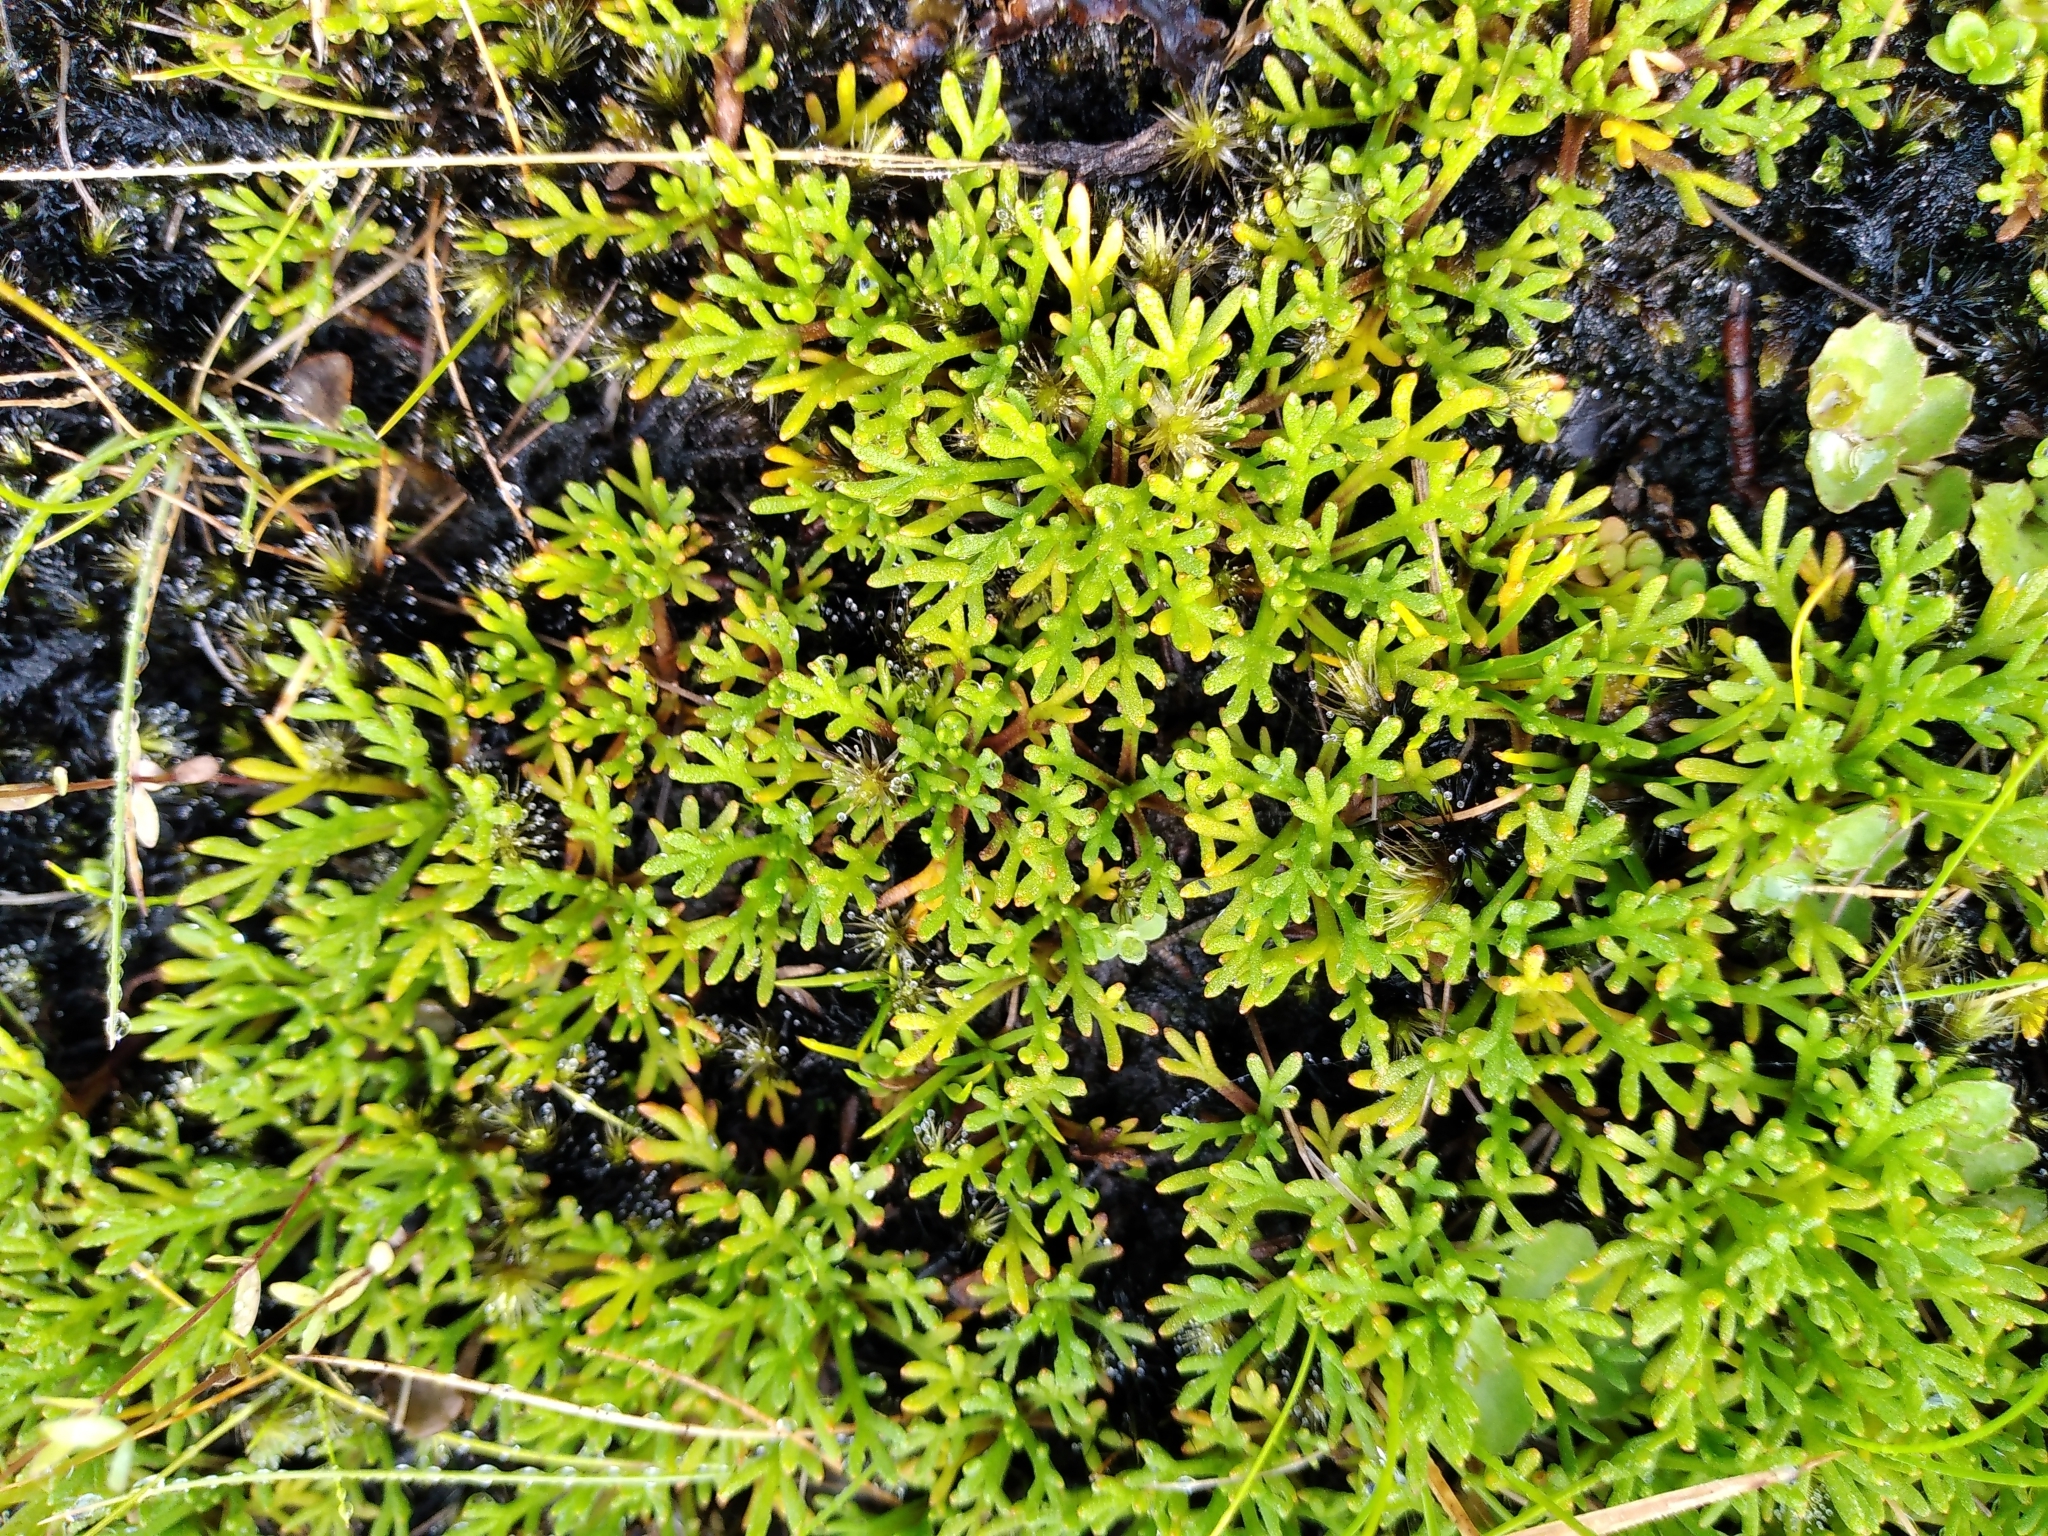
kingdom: Plantae
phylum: Tracheophyta
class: Magnoliopsida
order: Asterales
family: Asteraceae
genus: Leptinella
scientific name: Leptinella pyrethrifolia
